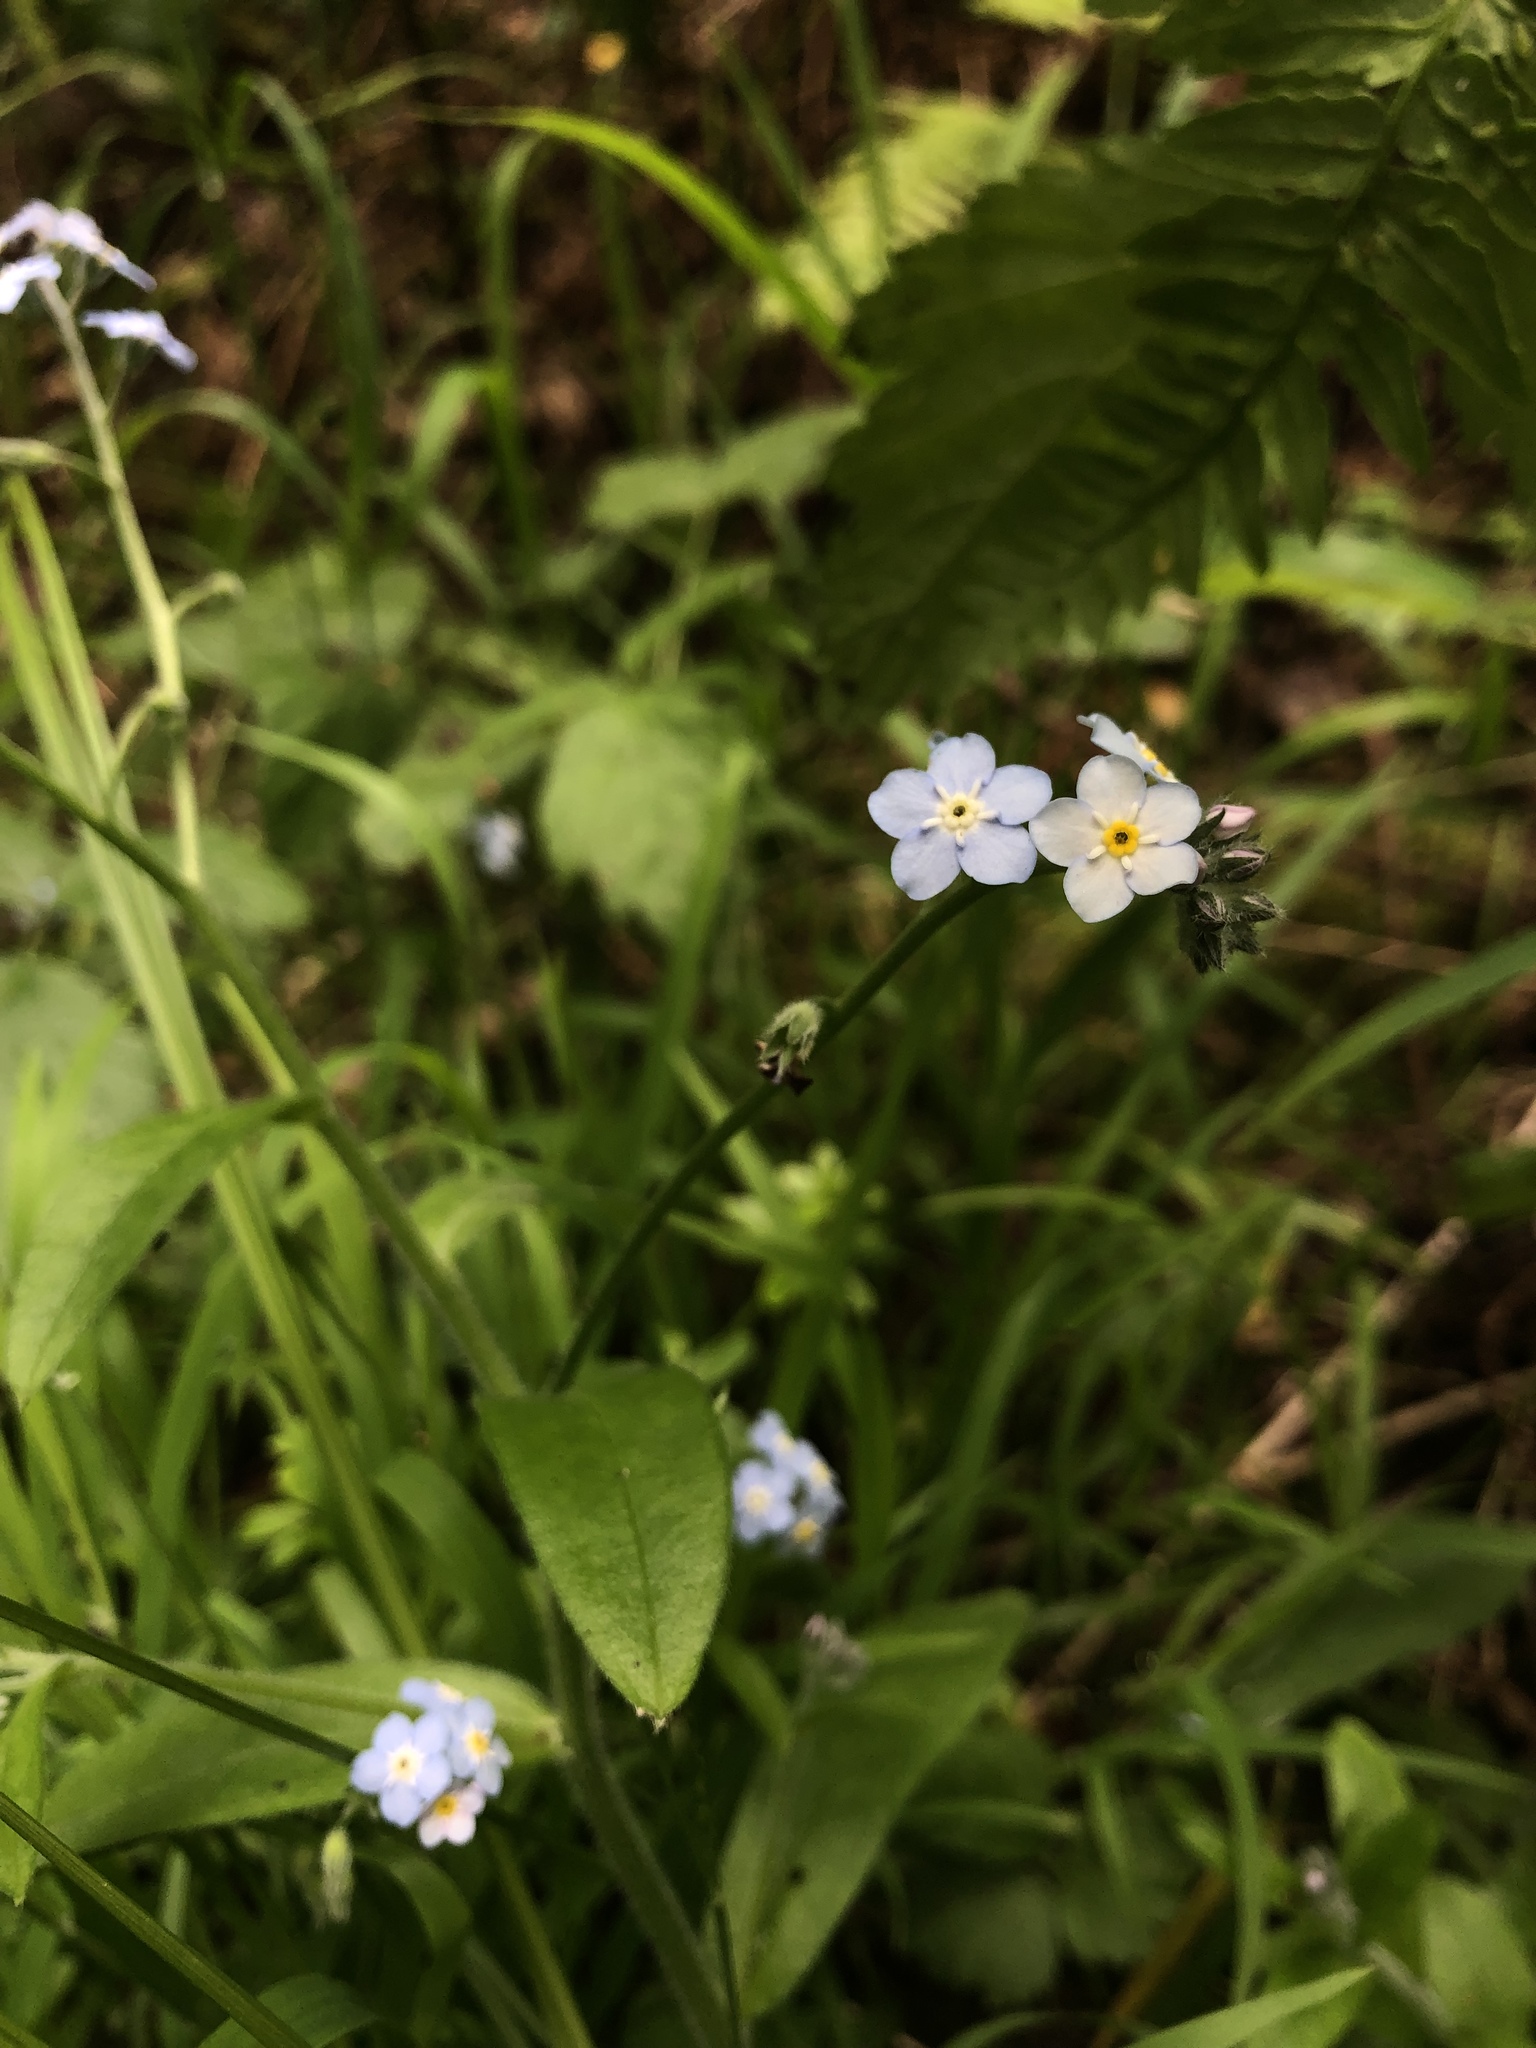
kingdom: Plantae
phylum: Tracheophyta
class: Magnoliopsida
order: Boraginales
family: Boraginaceae
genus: Myosotis
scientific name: Myosotis latifolia
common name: Broadleaf forget-me-not
